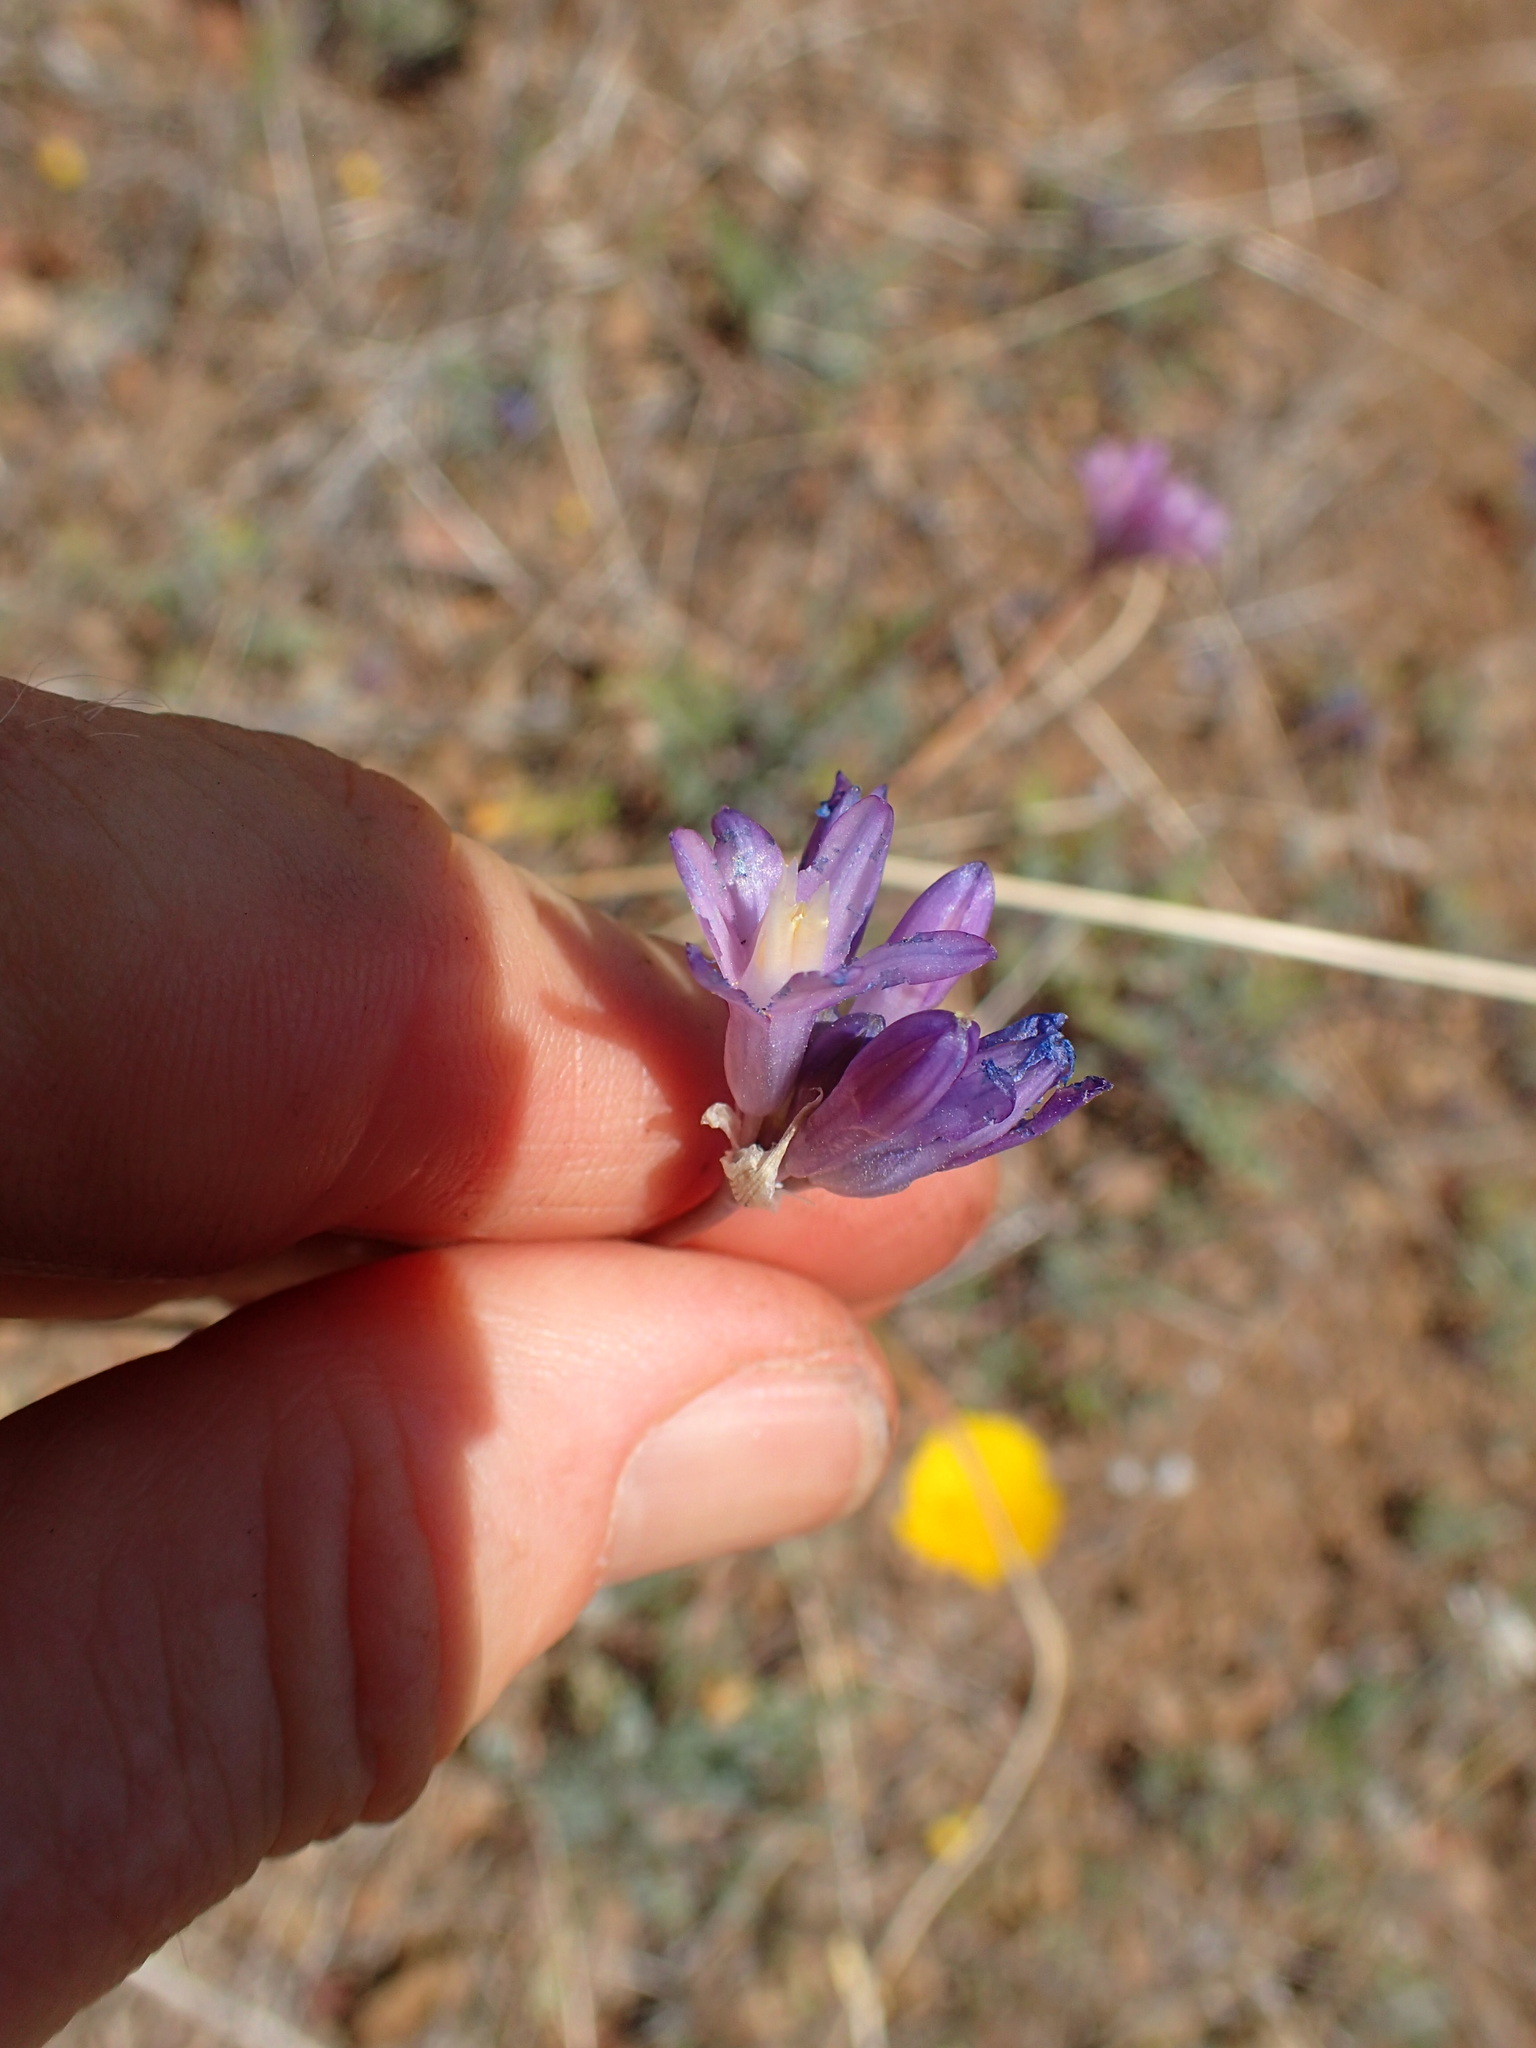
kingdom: Plantae
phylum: Tracheophyta
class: Liliopsida
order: Asparagales
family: Asparagaceae
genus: Dipterostemon
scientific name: Dipterostemon capitatus
